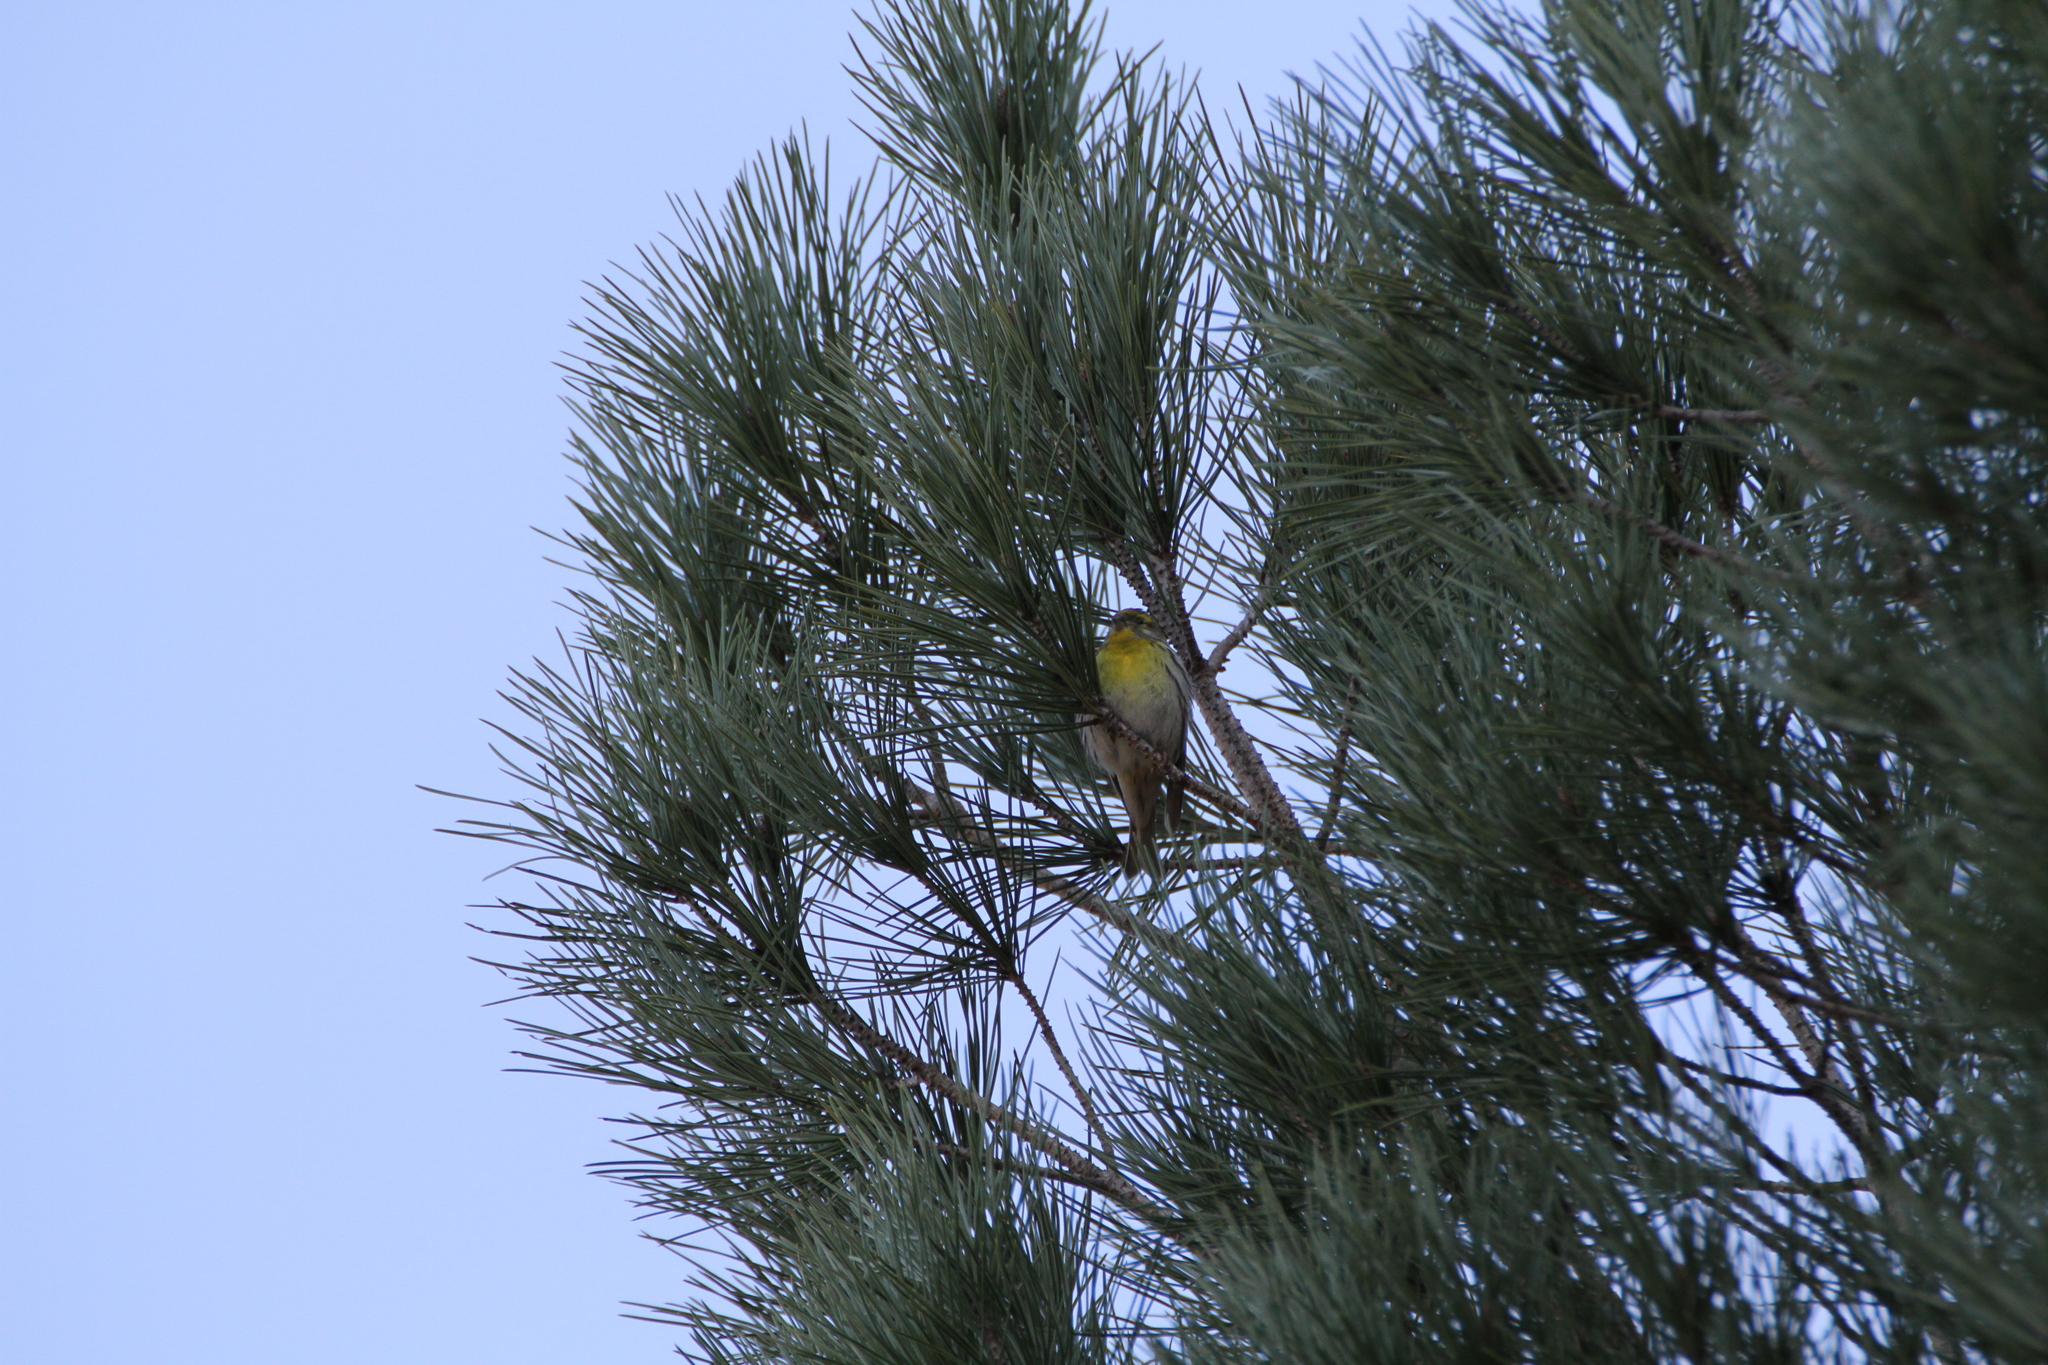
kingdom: Animalia
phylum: Chordata
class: Aves
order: Passeriformes
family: Fringillidae
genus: Serinus
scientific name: Serinus serinus
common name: European serin
